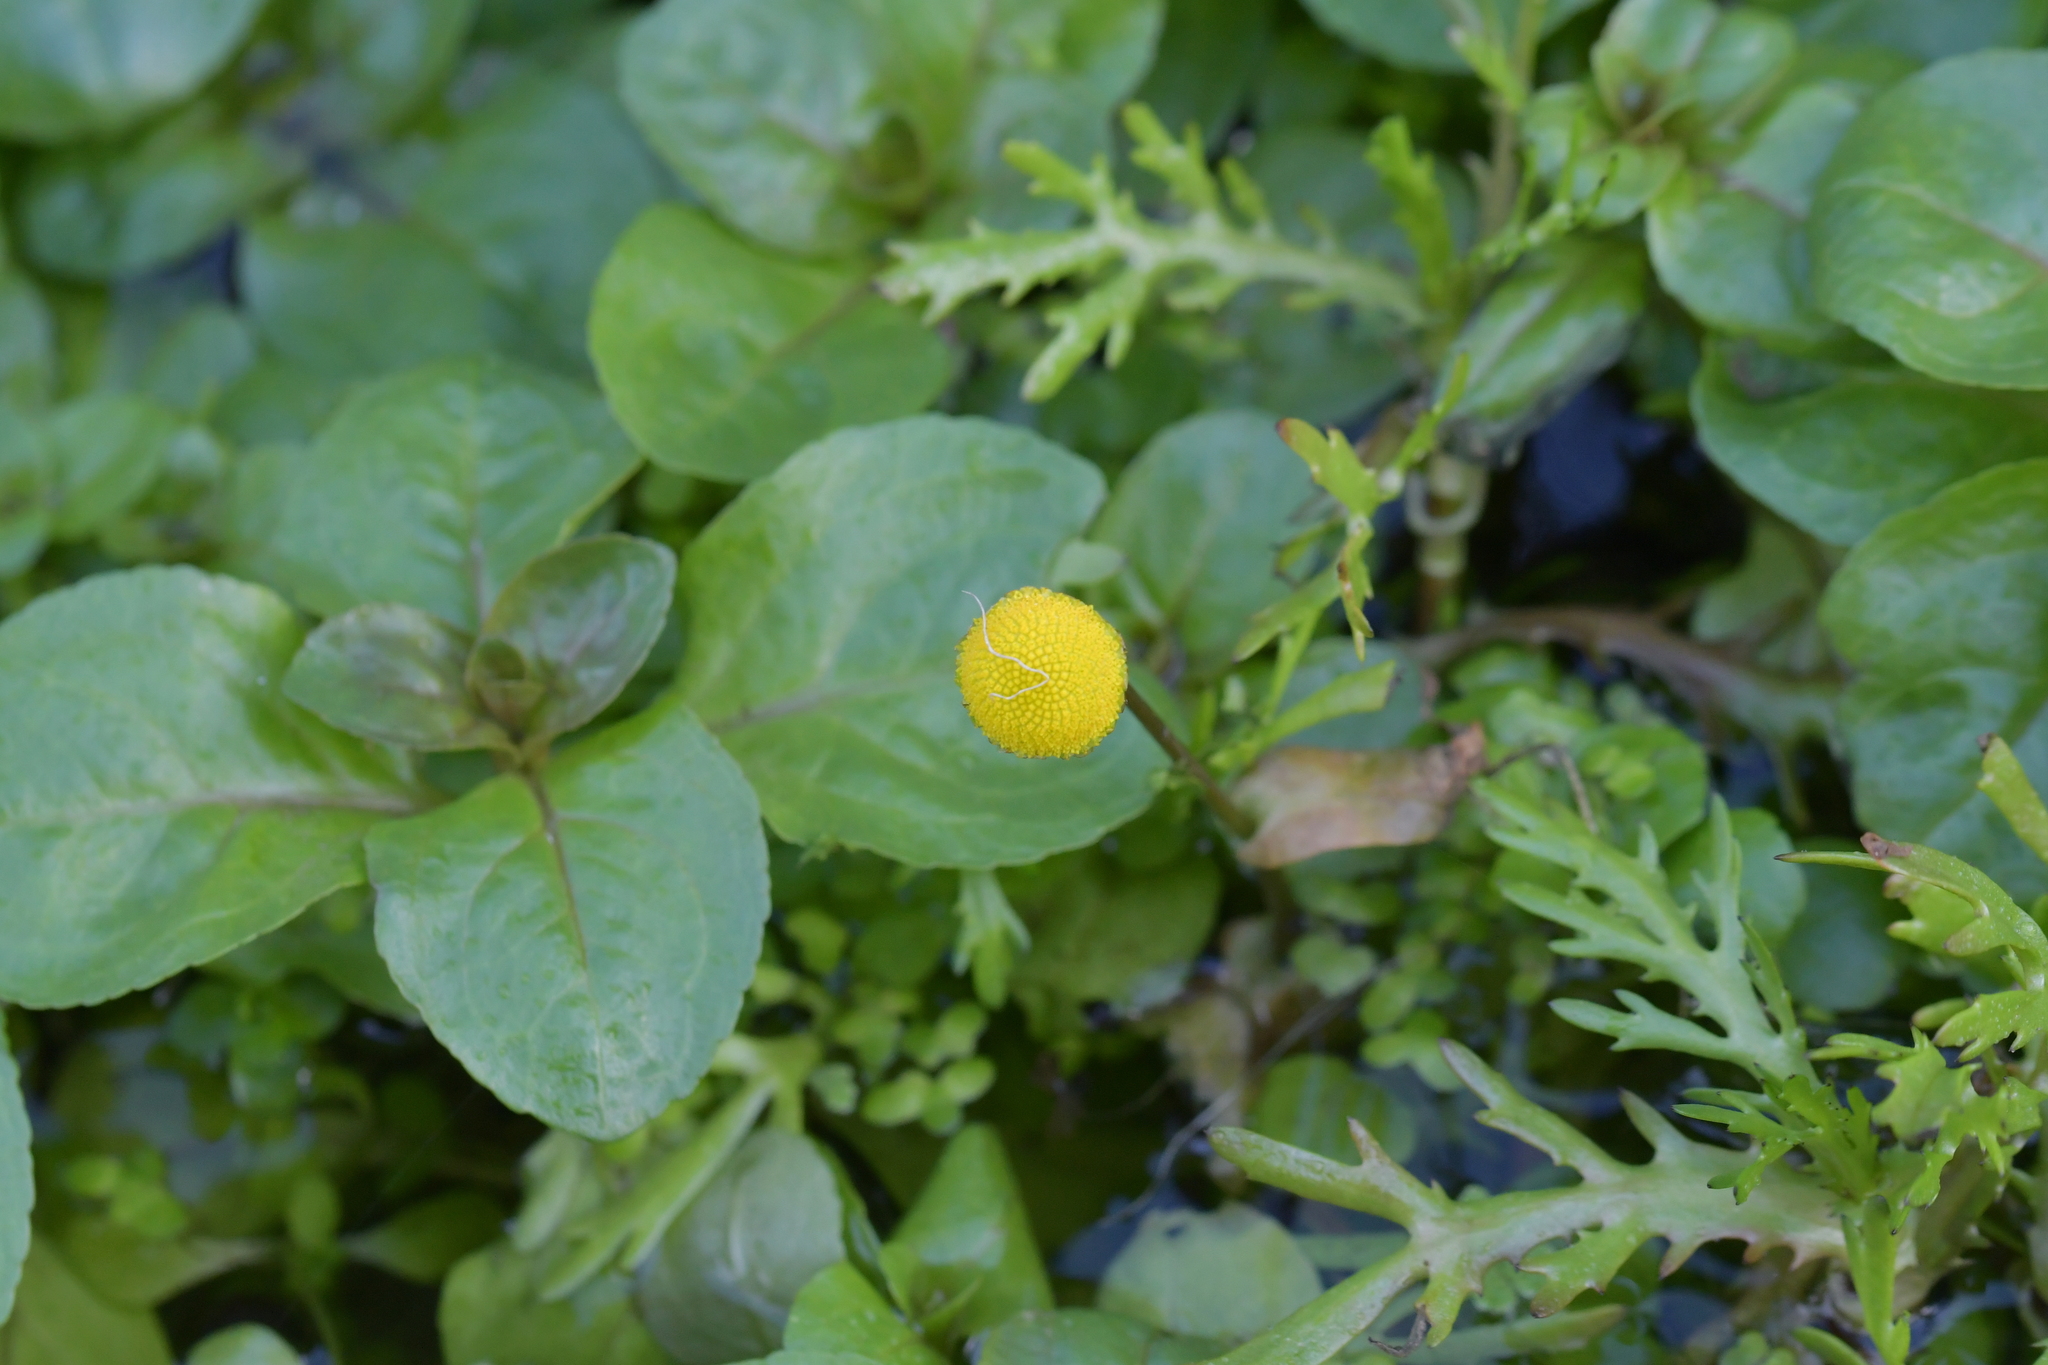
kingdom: Plantae
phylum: Tracheophyta
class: Magnoliopsida
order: Asterales
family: Asteraceae
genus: Cotula
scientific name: Cotula coronopifolia
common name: Buttonweed
